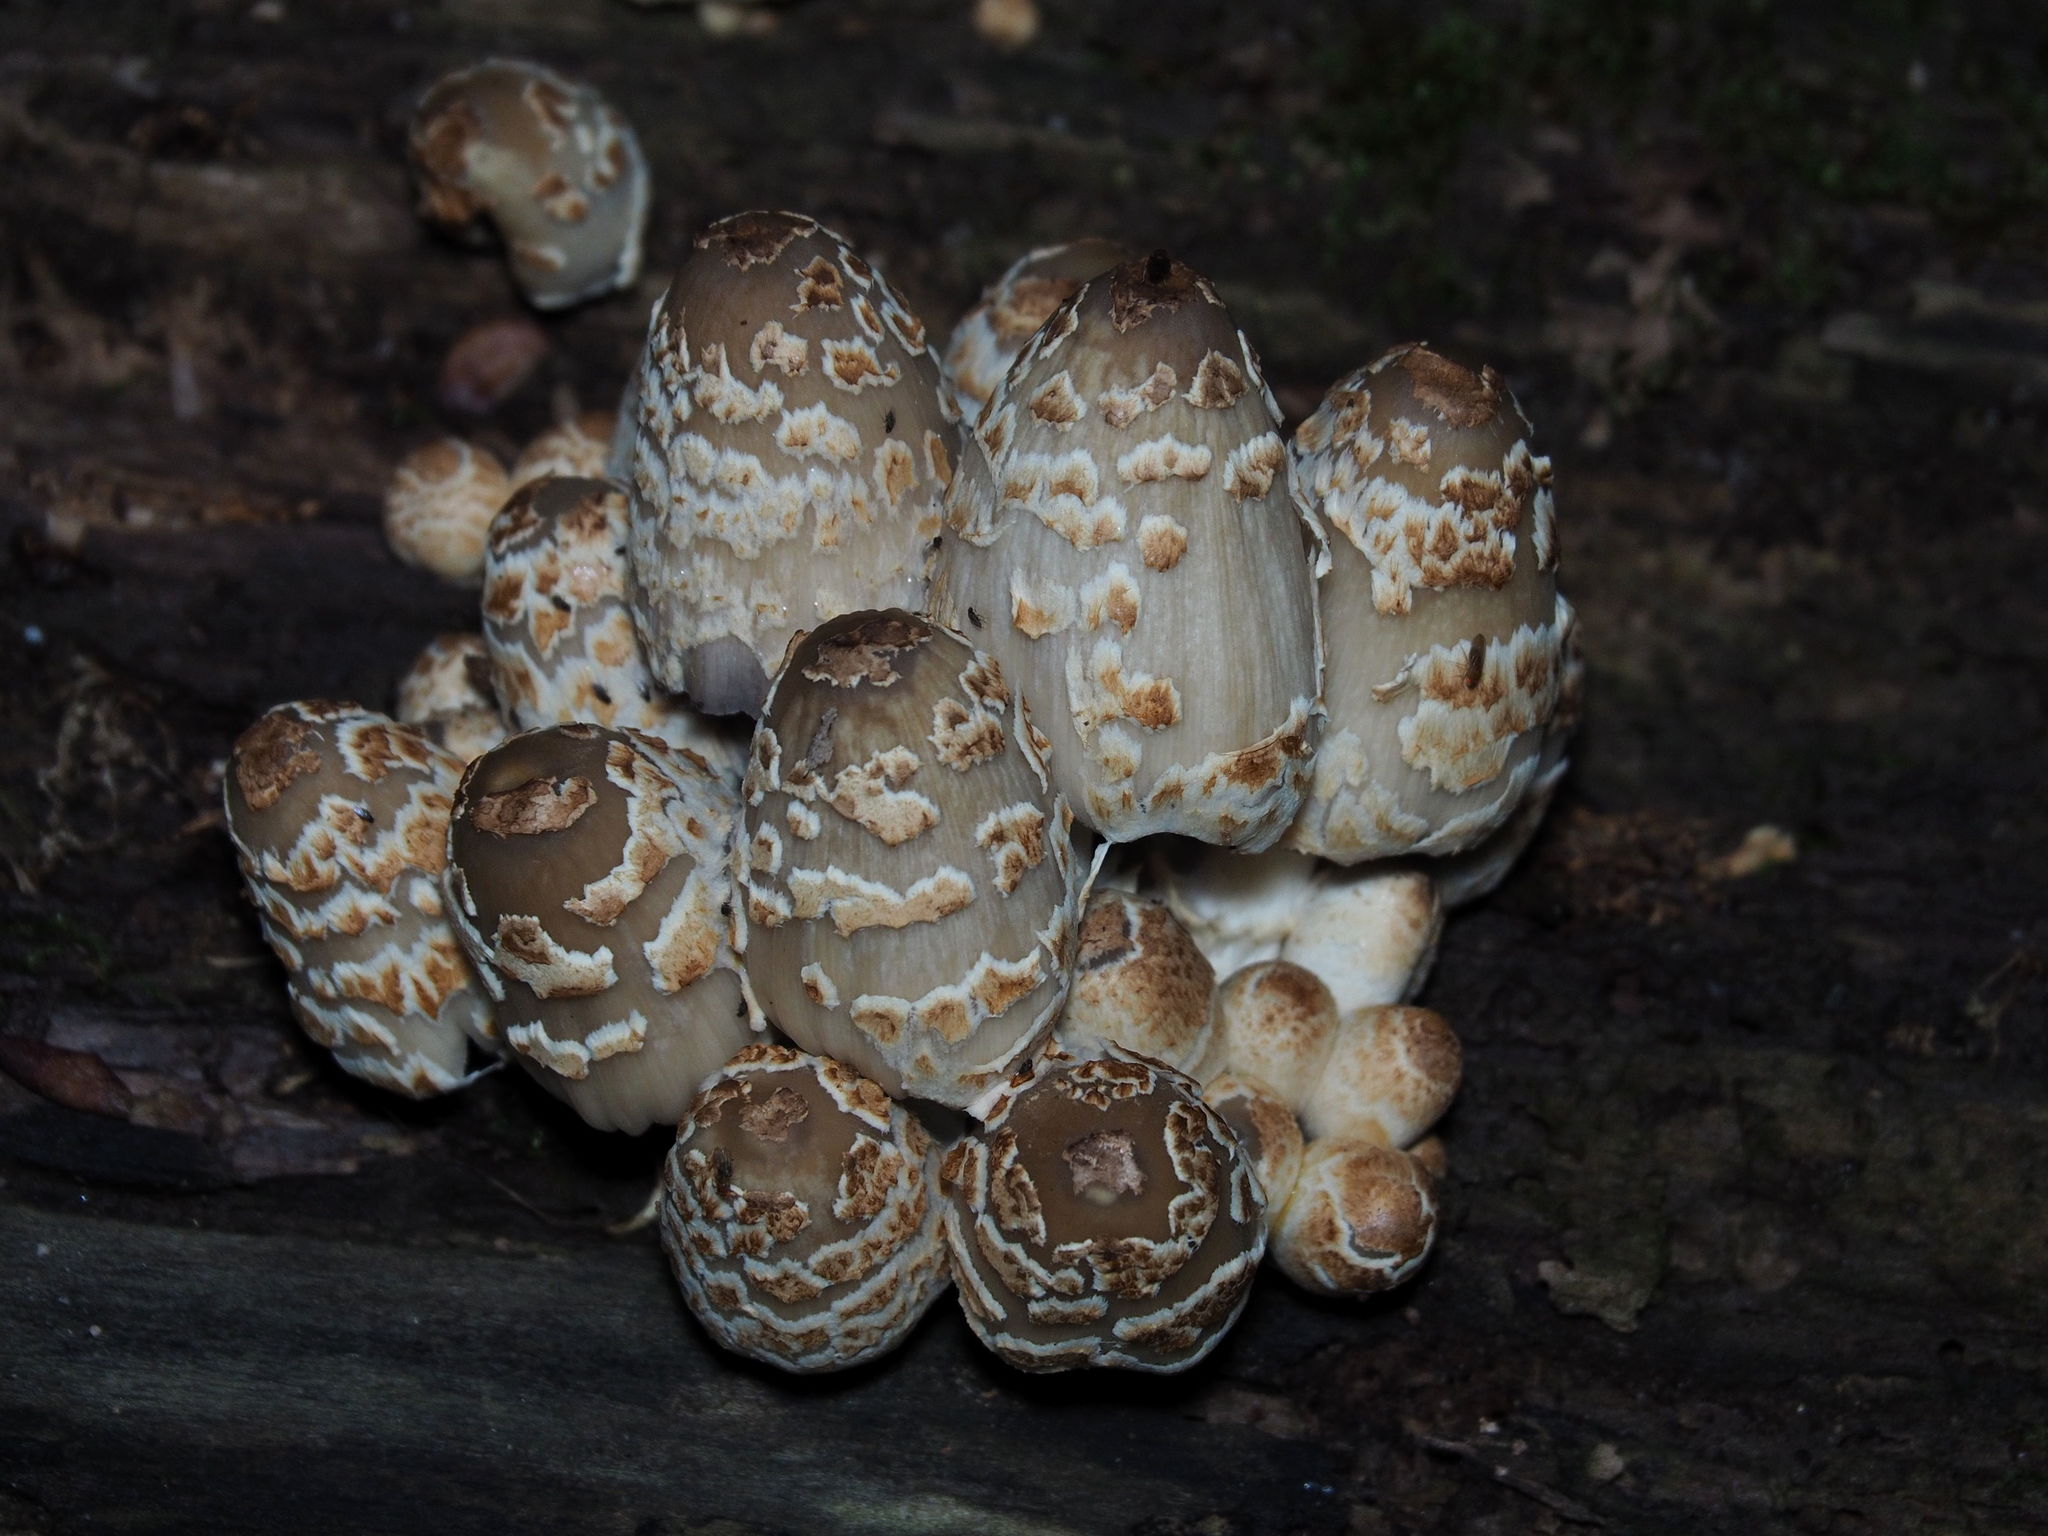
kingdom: Fungi
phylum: Basidiomycota
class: Agaricomycetes
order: Agaricales
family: Psathyrellaceae
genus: Coprinopsis
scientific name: Coprinopsis variegata
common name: Scaly ink cap
